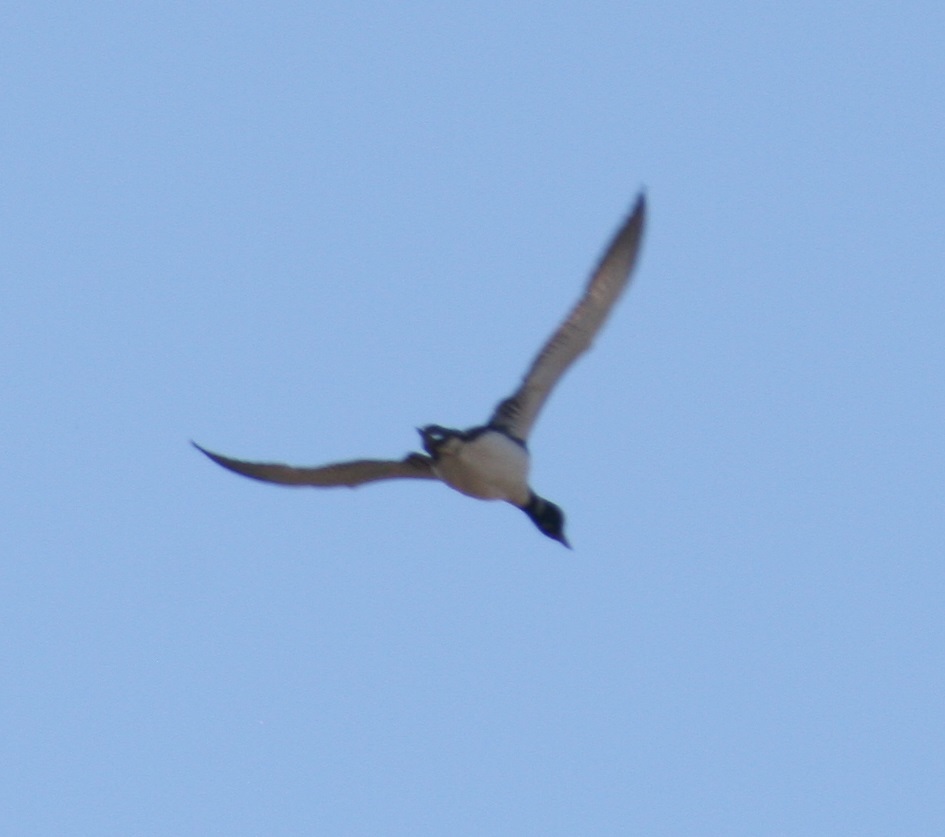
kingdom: Animalia
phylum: Chordata
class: Aves
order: Gaviiformes
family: Gaviidae
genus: Gavia
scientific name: Gavia immer
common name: Common loon
